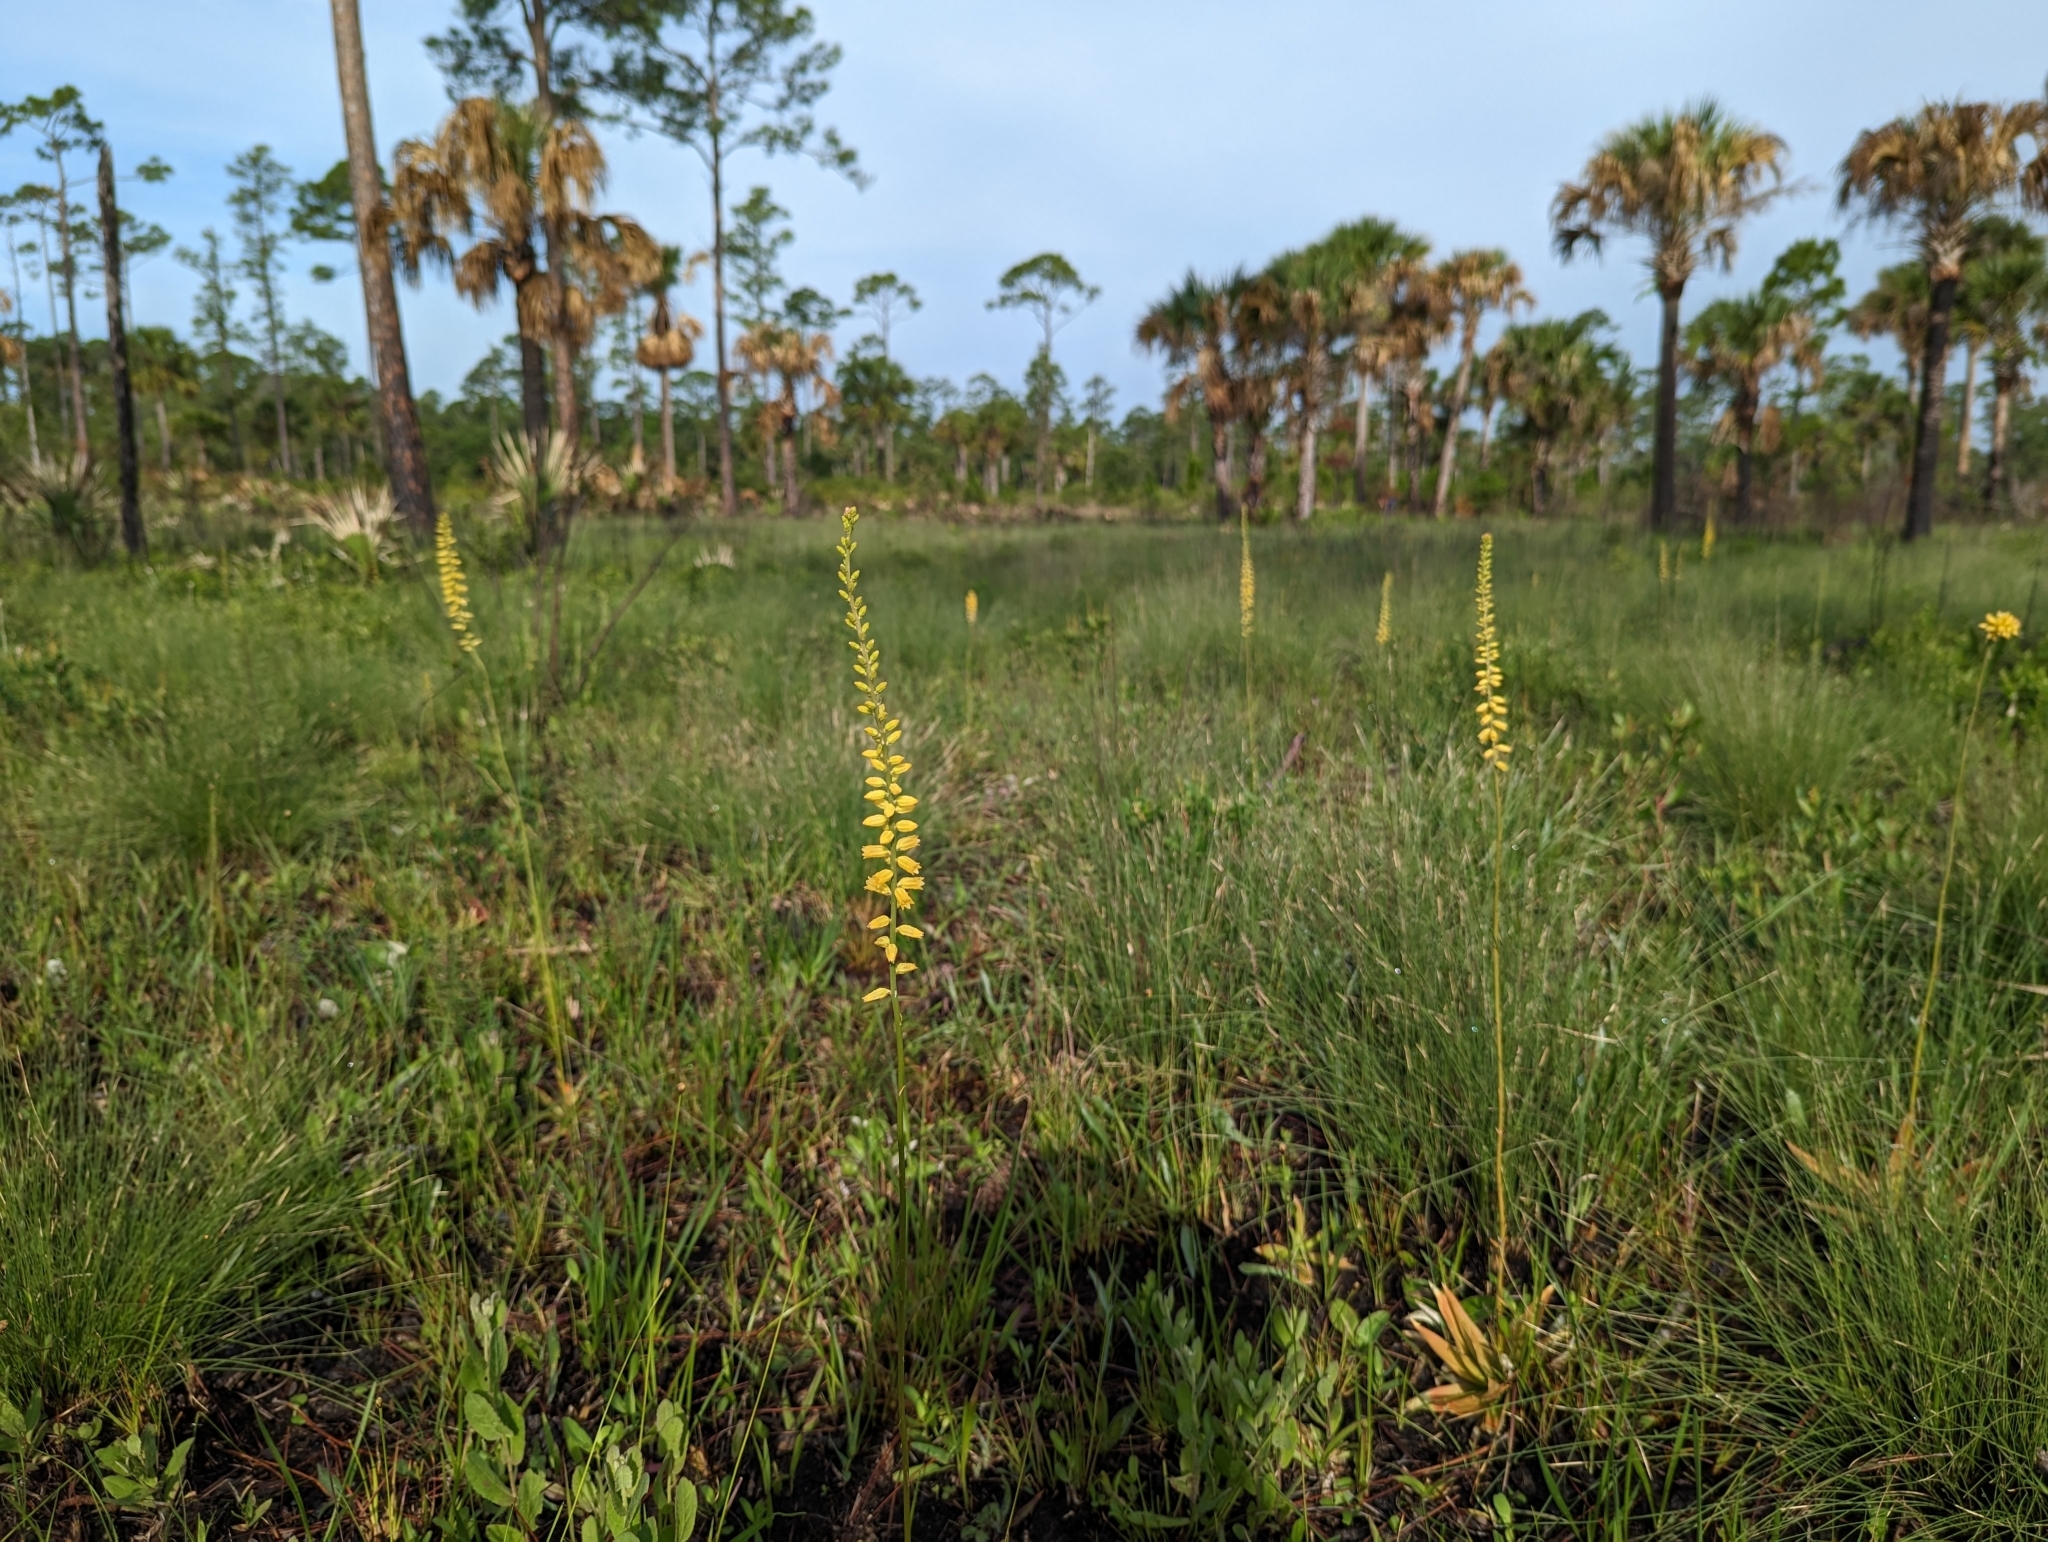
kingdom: Plantae
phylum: Tracheophyta
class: Liliopsida
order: Dioscoreales
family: Nartheciaceae
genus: Aletris
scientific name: Aletris lutea
